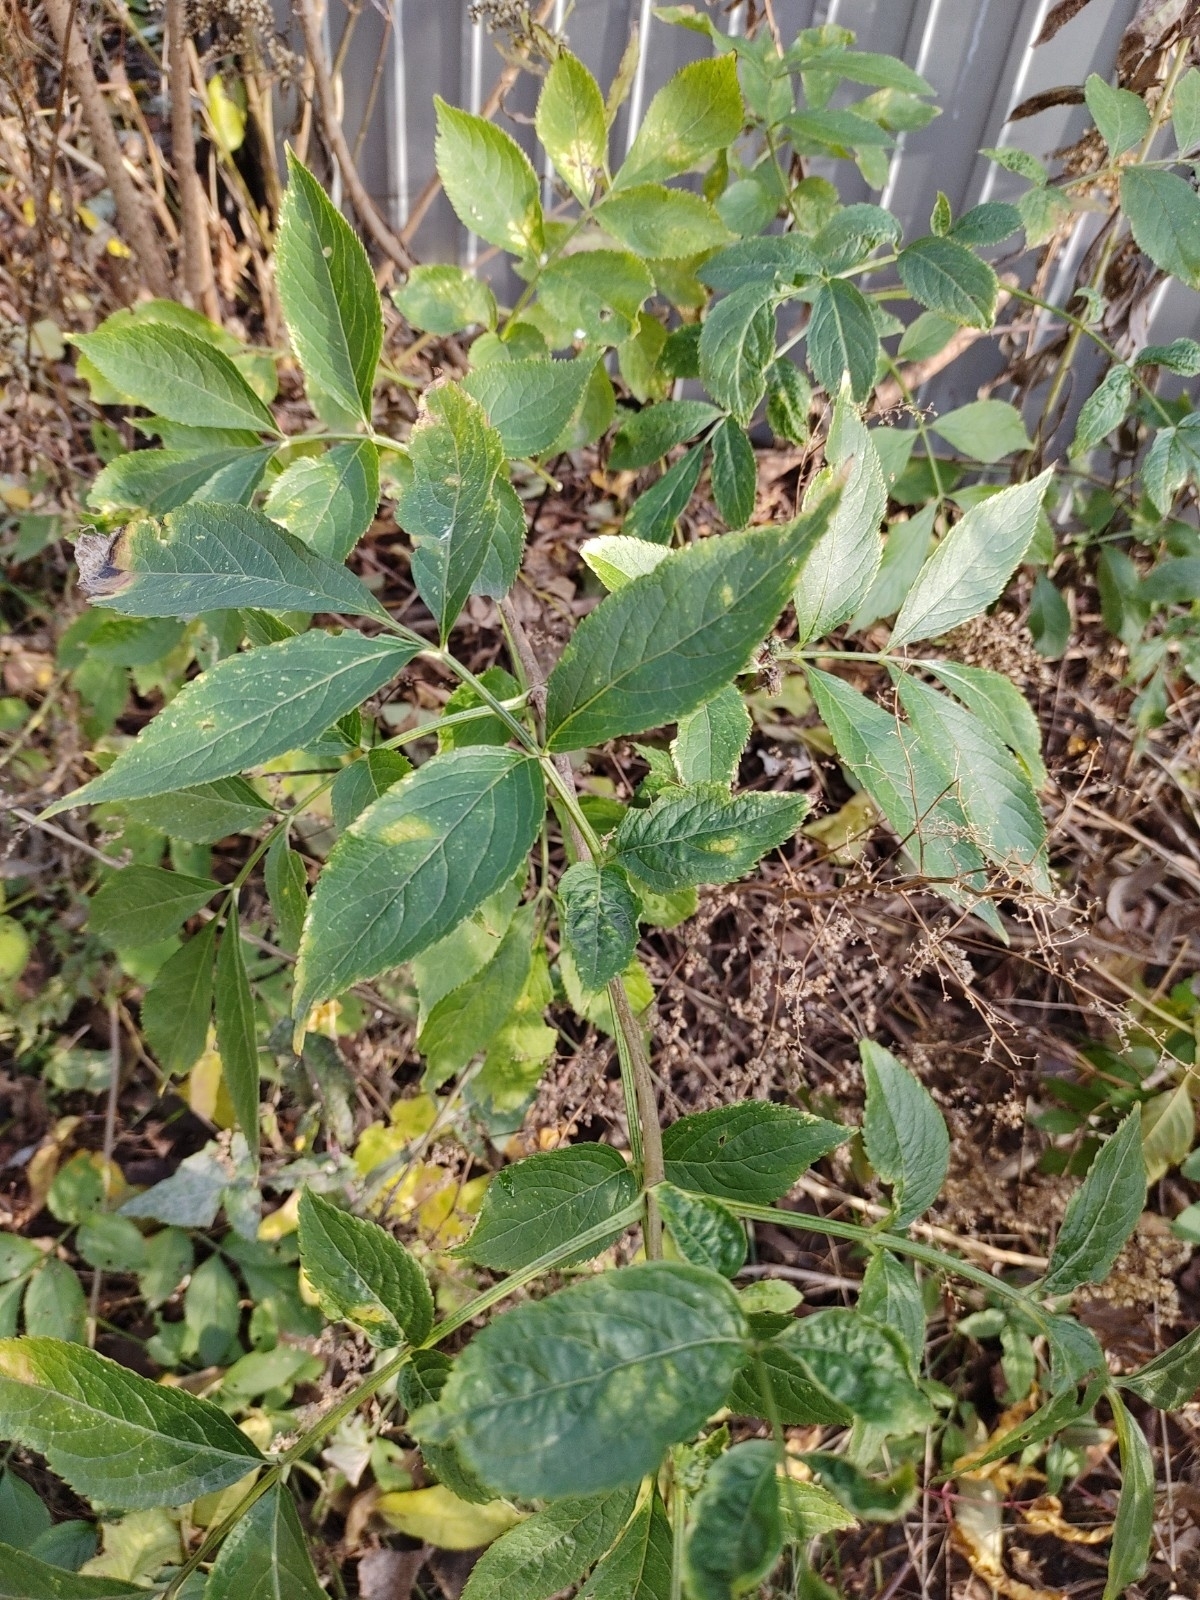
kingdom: Plantae
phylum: Tracheophyta
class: Magnoliopsida
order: Dipsacales
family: Viburnaceae
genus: Sambucus
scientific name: Sambucus nigra
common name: Elder
